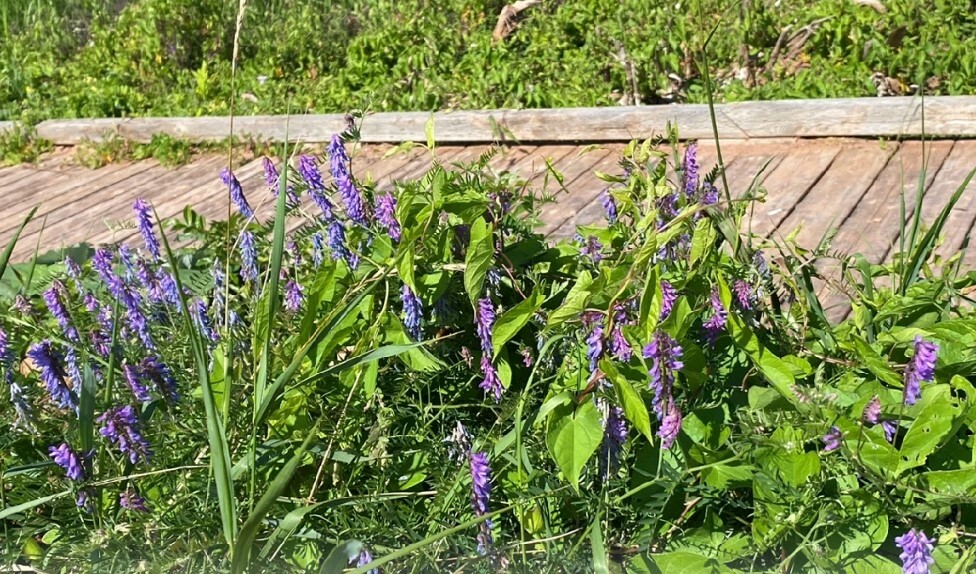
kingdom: Plantae
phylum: Tracheophyta
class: Magnoliopsida
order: Fabales
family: Fabaceae
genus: Vicia
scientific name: Vicia cracca
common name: Bird vetch
